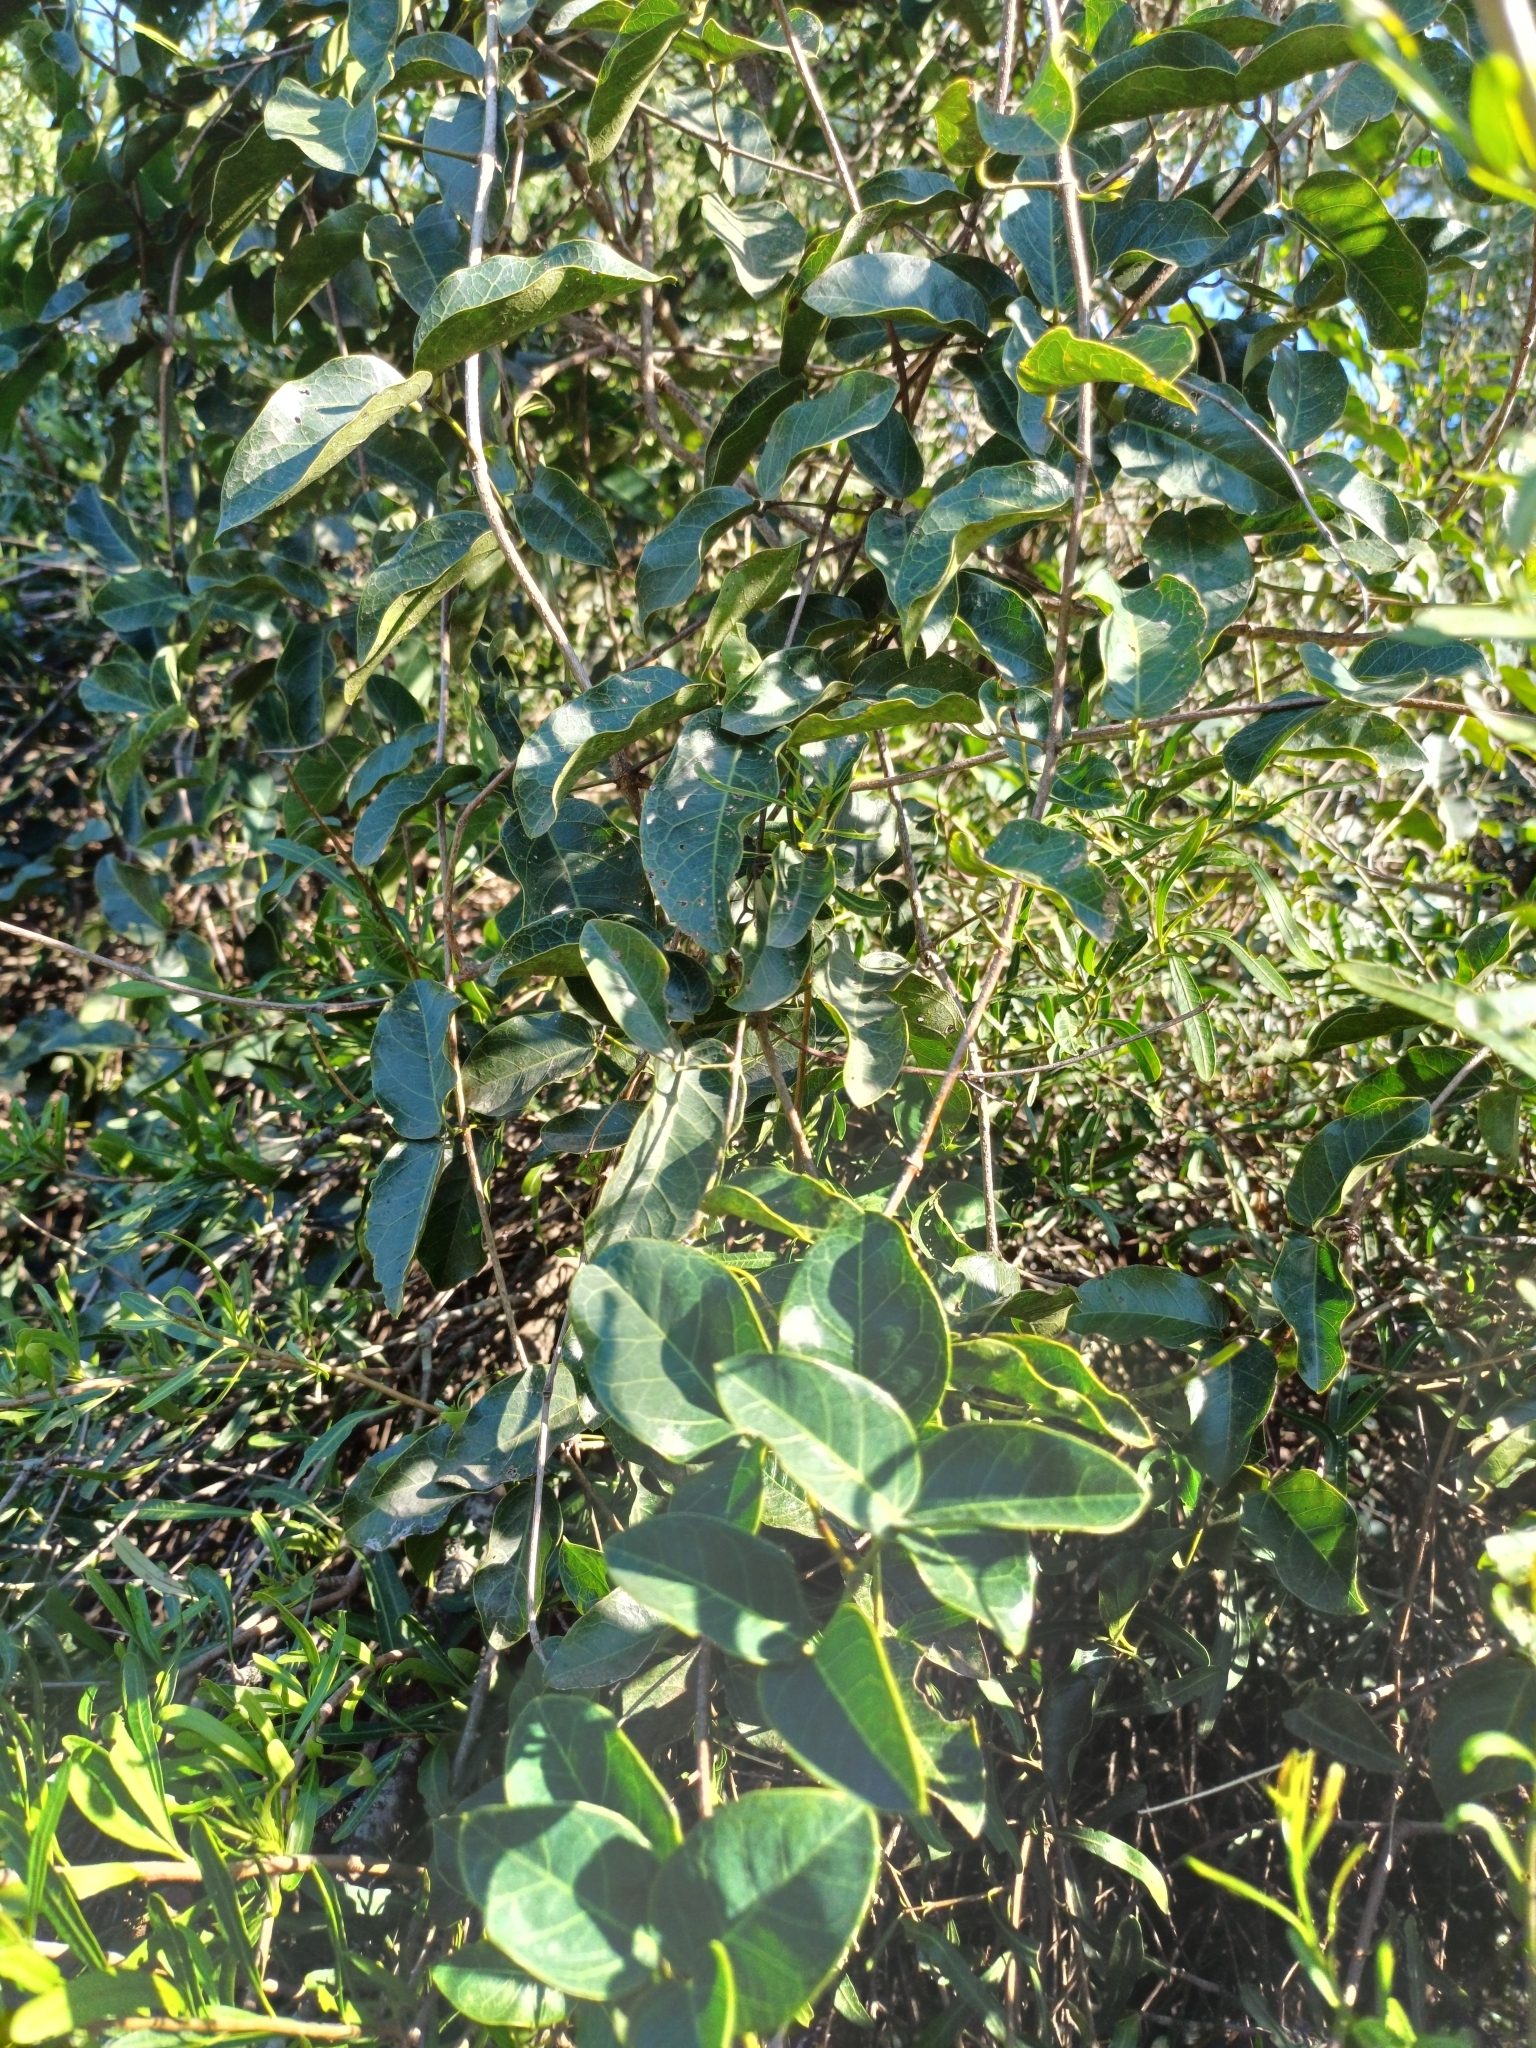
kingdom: Plantae
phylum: Tracheophyta
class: Magnoliopsida
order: Lamiales
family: Bignoniaceae
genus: Dolichandra
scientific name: Dolichandra cynanchoides
